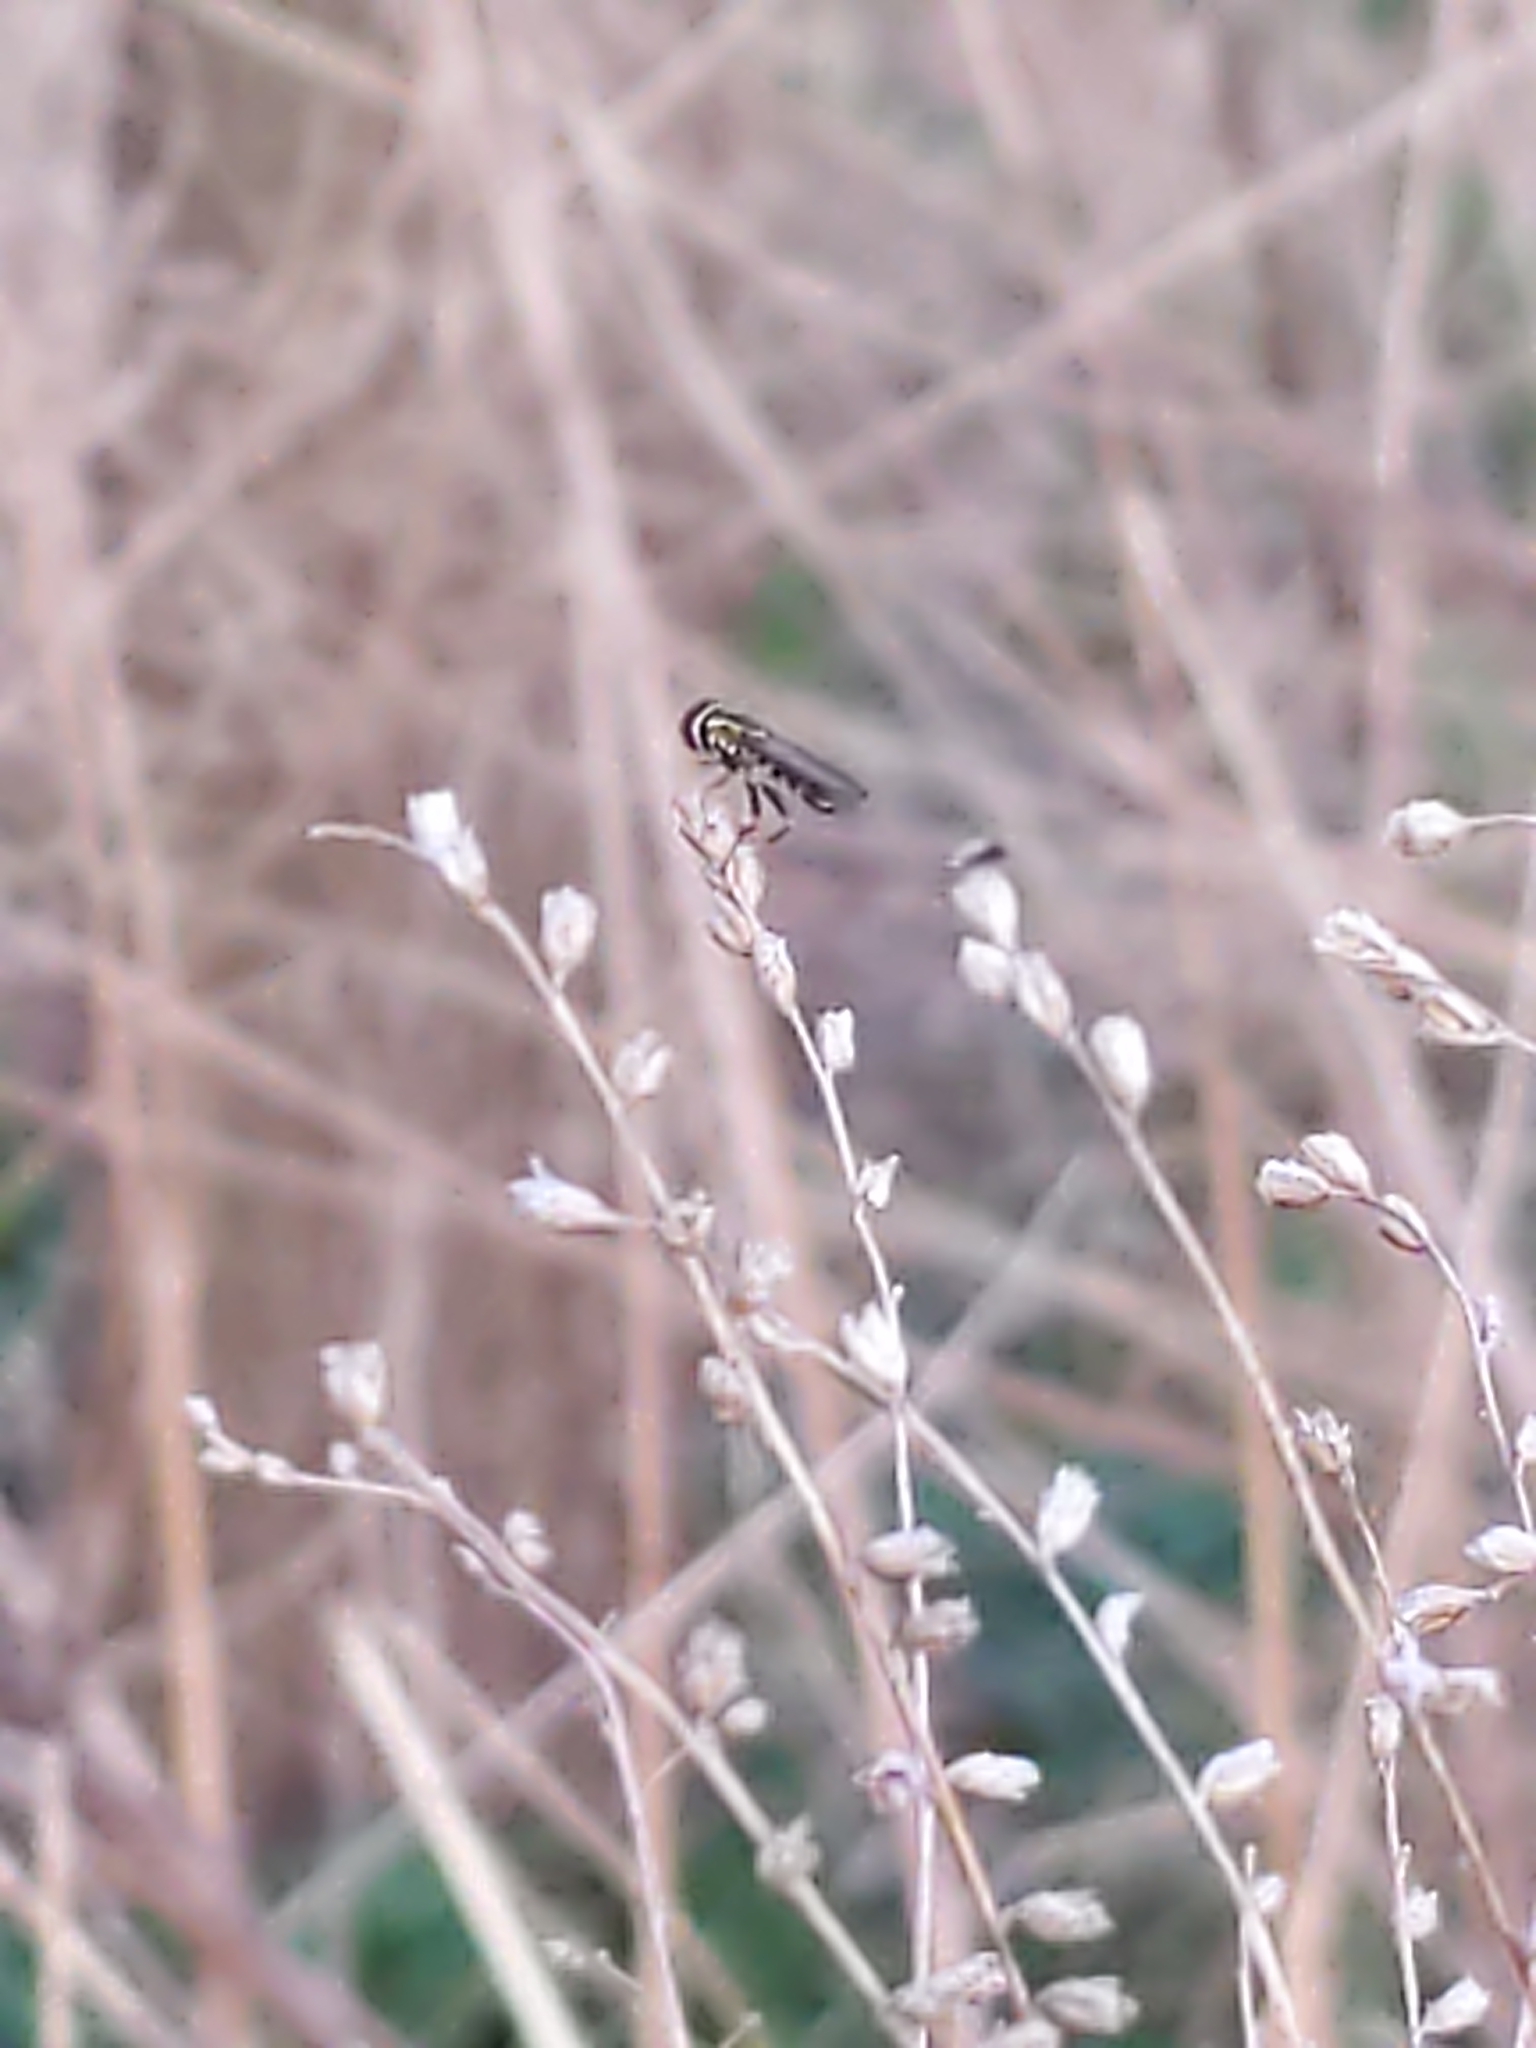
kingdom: Animalia
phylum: Arthropoda
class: Insecta
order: Diptera
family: Syrphidae
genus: Toxomerus
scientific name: Toxomerus geminatus
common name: Eastern calligrapher
